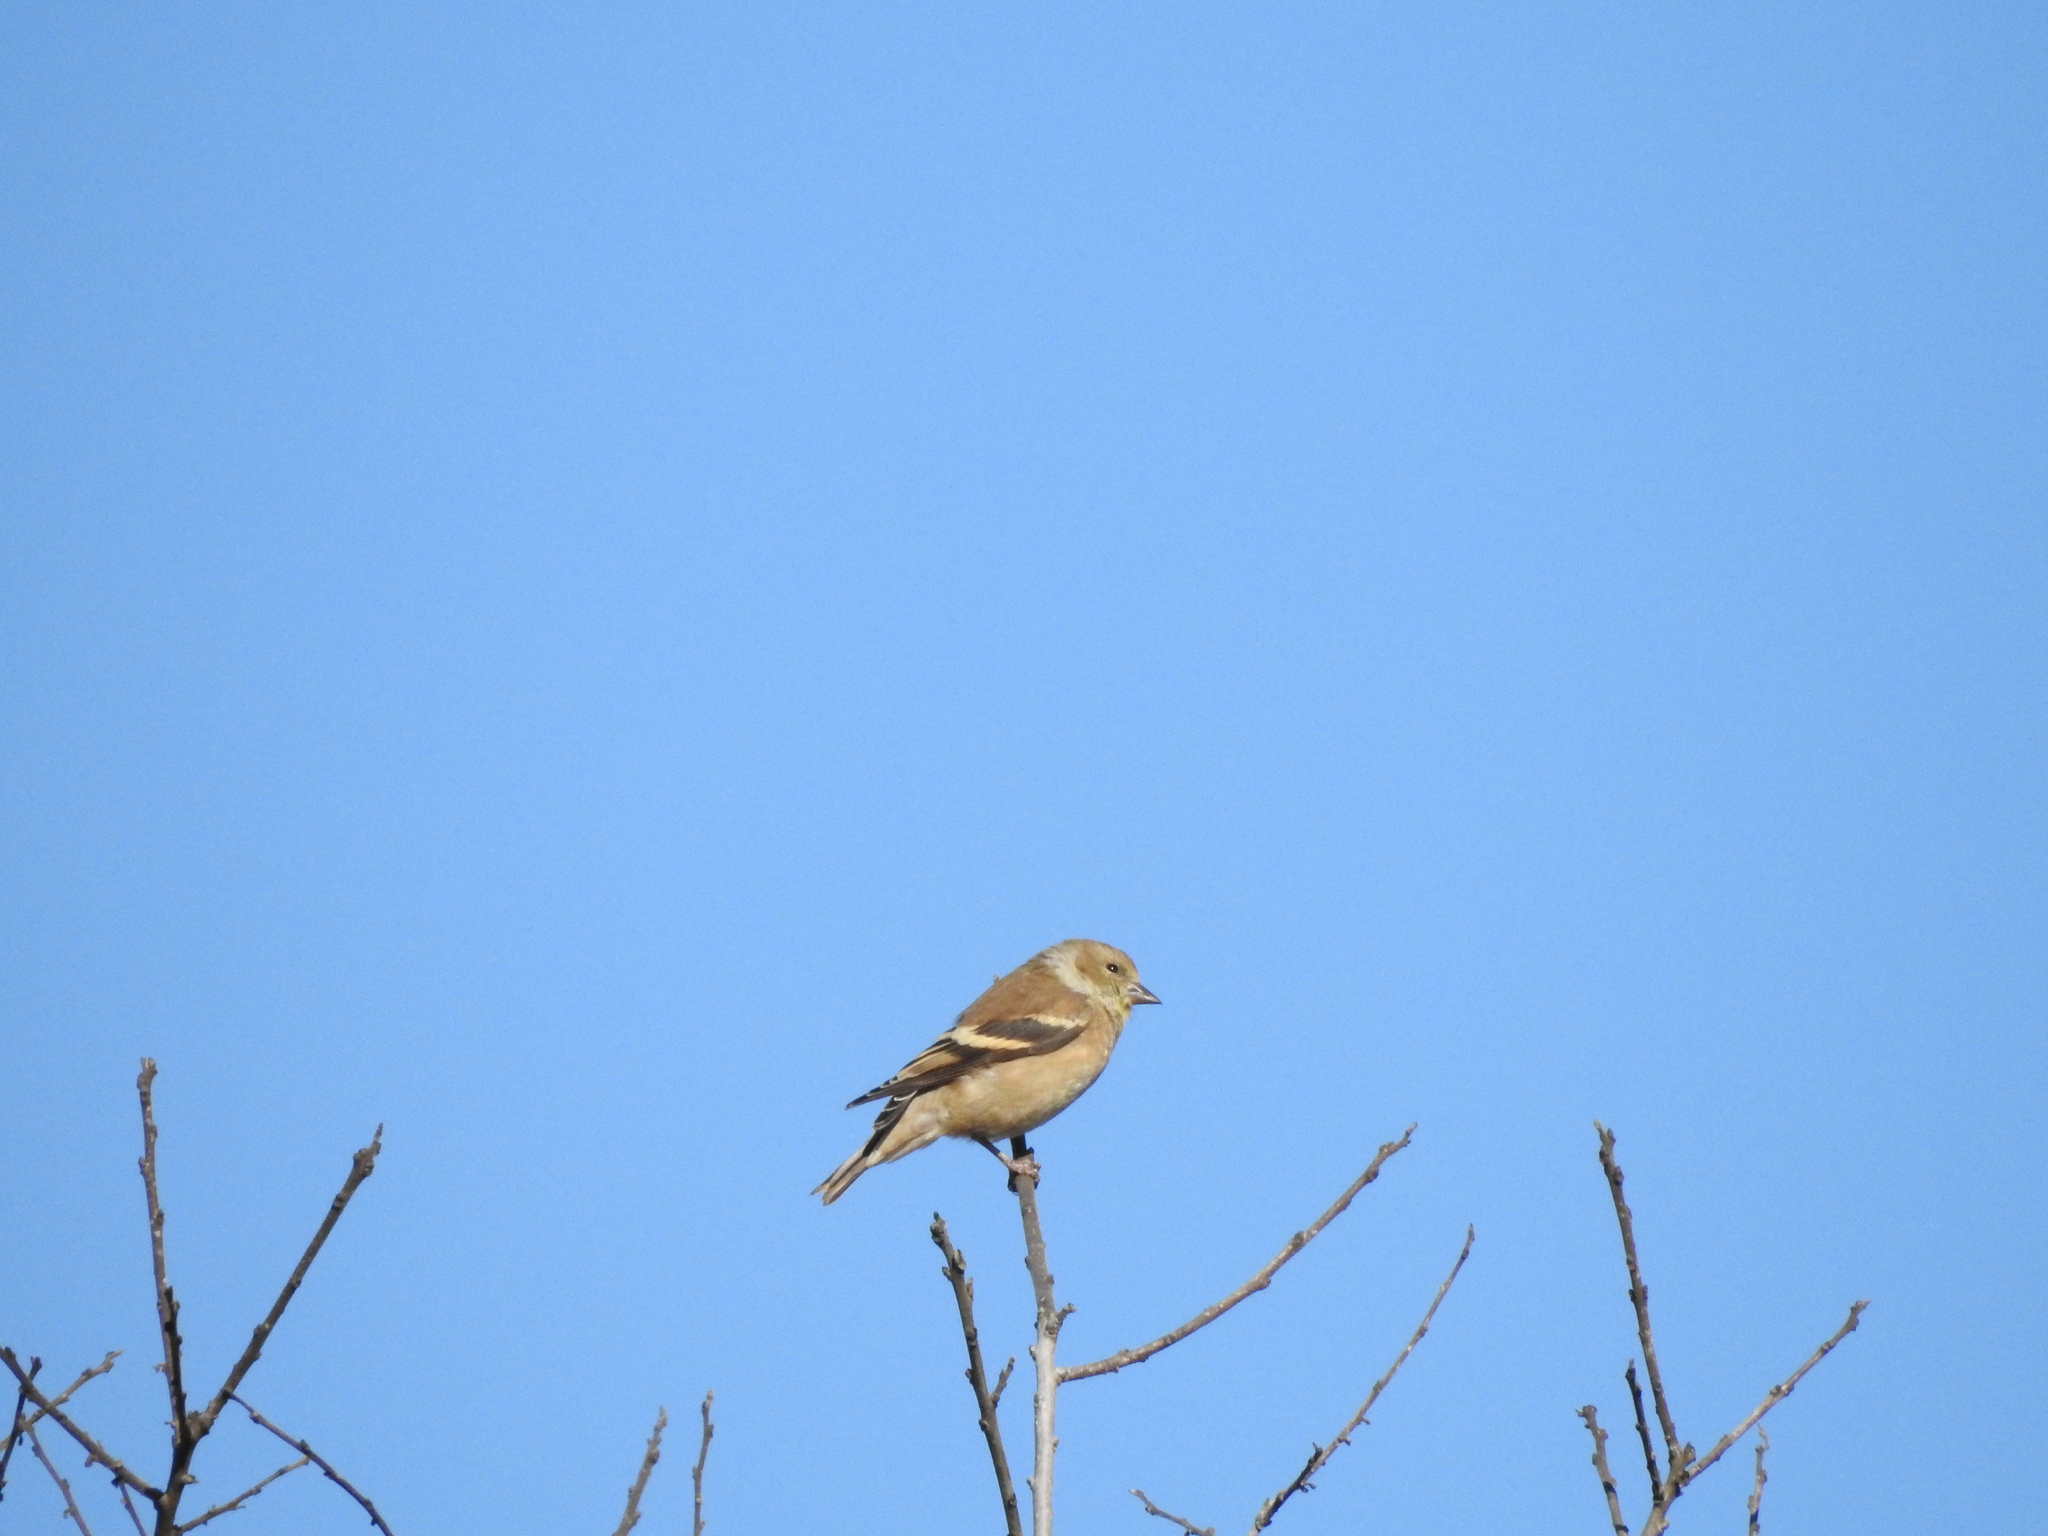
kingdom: Animalia
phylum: Chordata
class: Aves
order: Passeriformes
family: Fringillidae
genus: Spinus
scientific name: Spinus tristis
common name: American goldfinch
